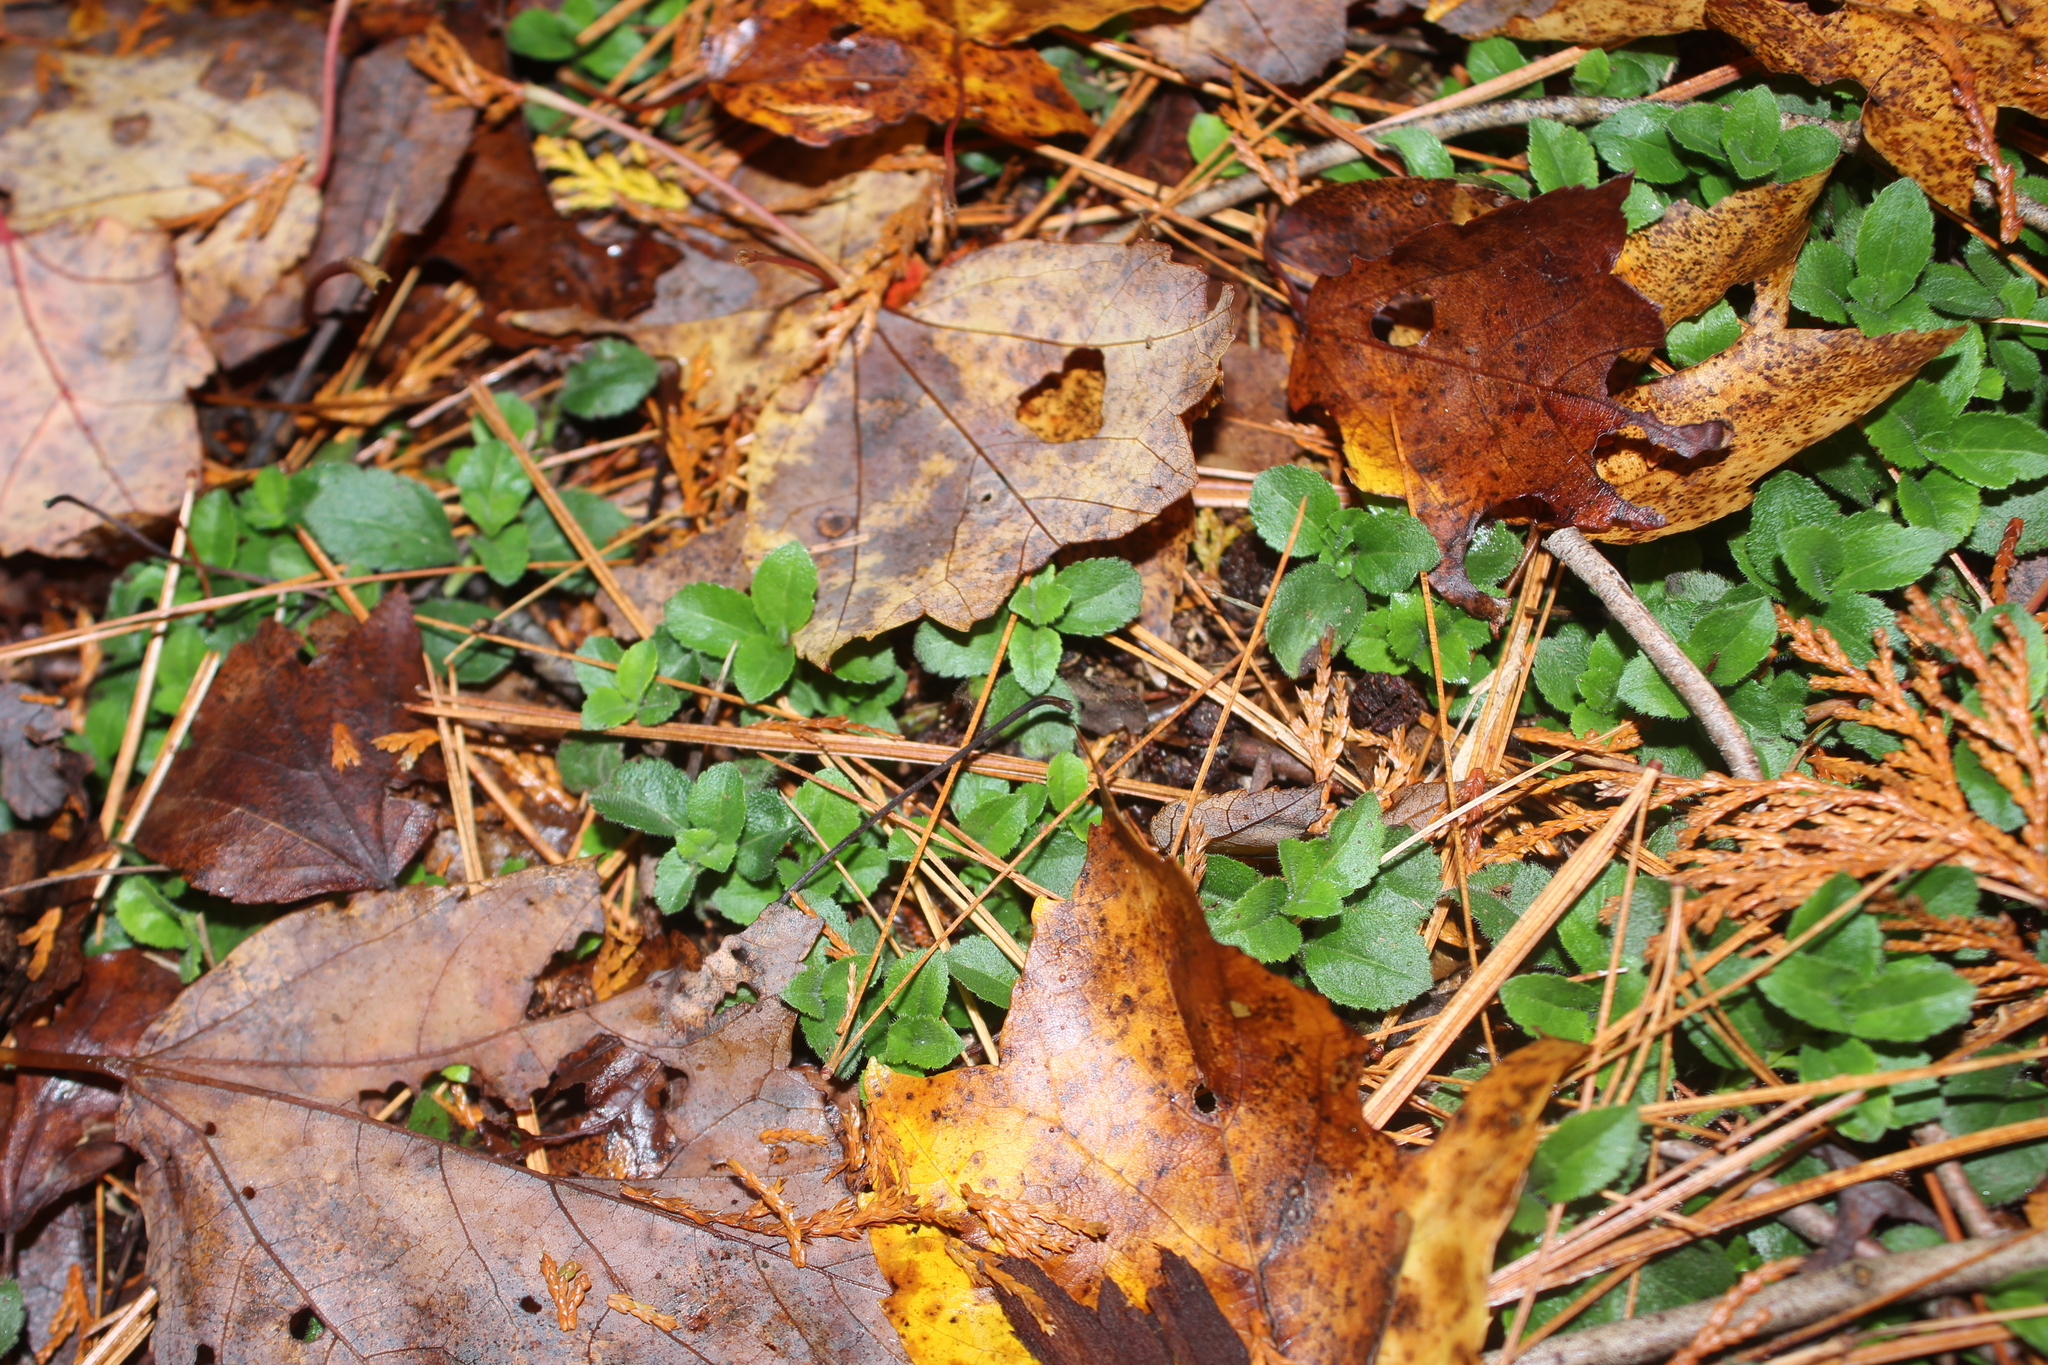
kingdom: Plantae
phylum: Tracheophyta
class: Magnoliopsida
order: Lamiales
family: Plantaginaceae
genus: Veronica
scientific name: Veronica officinalis
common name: Common speedwell
